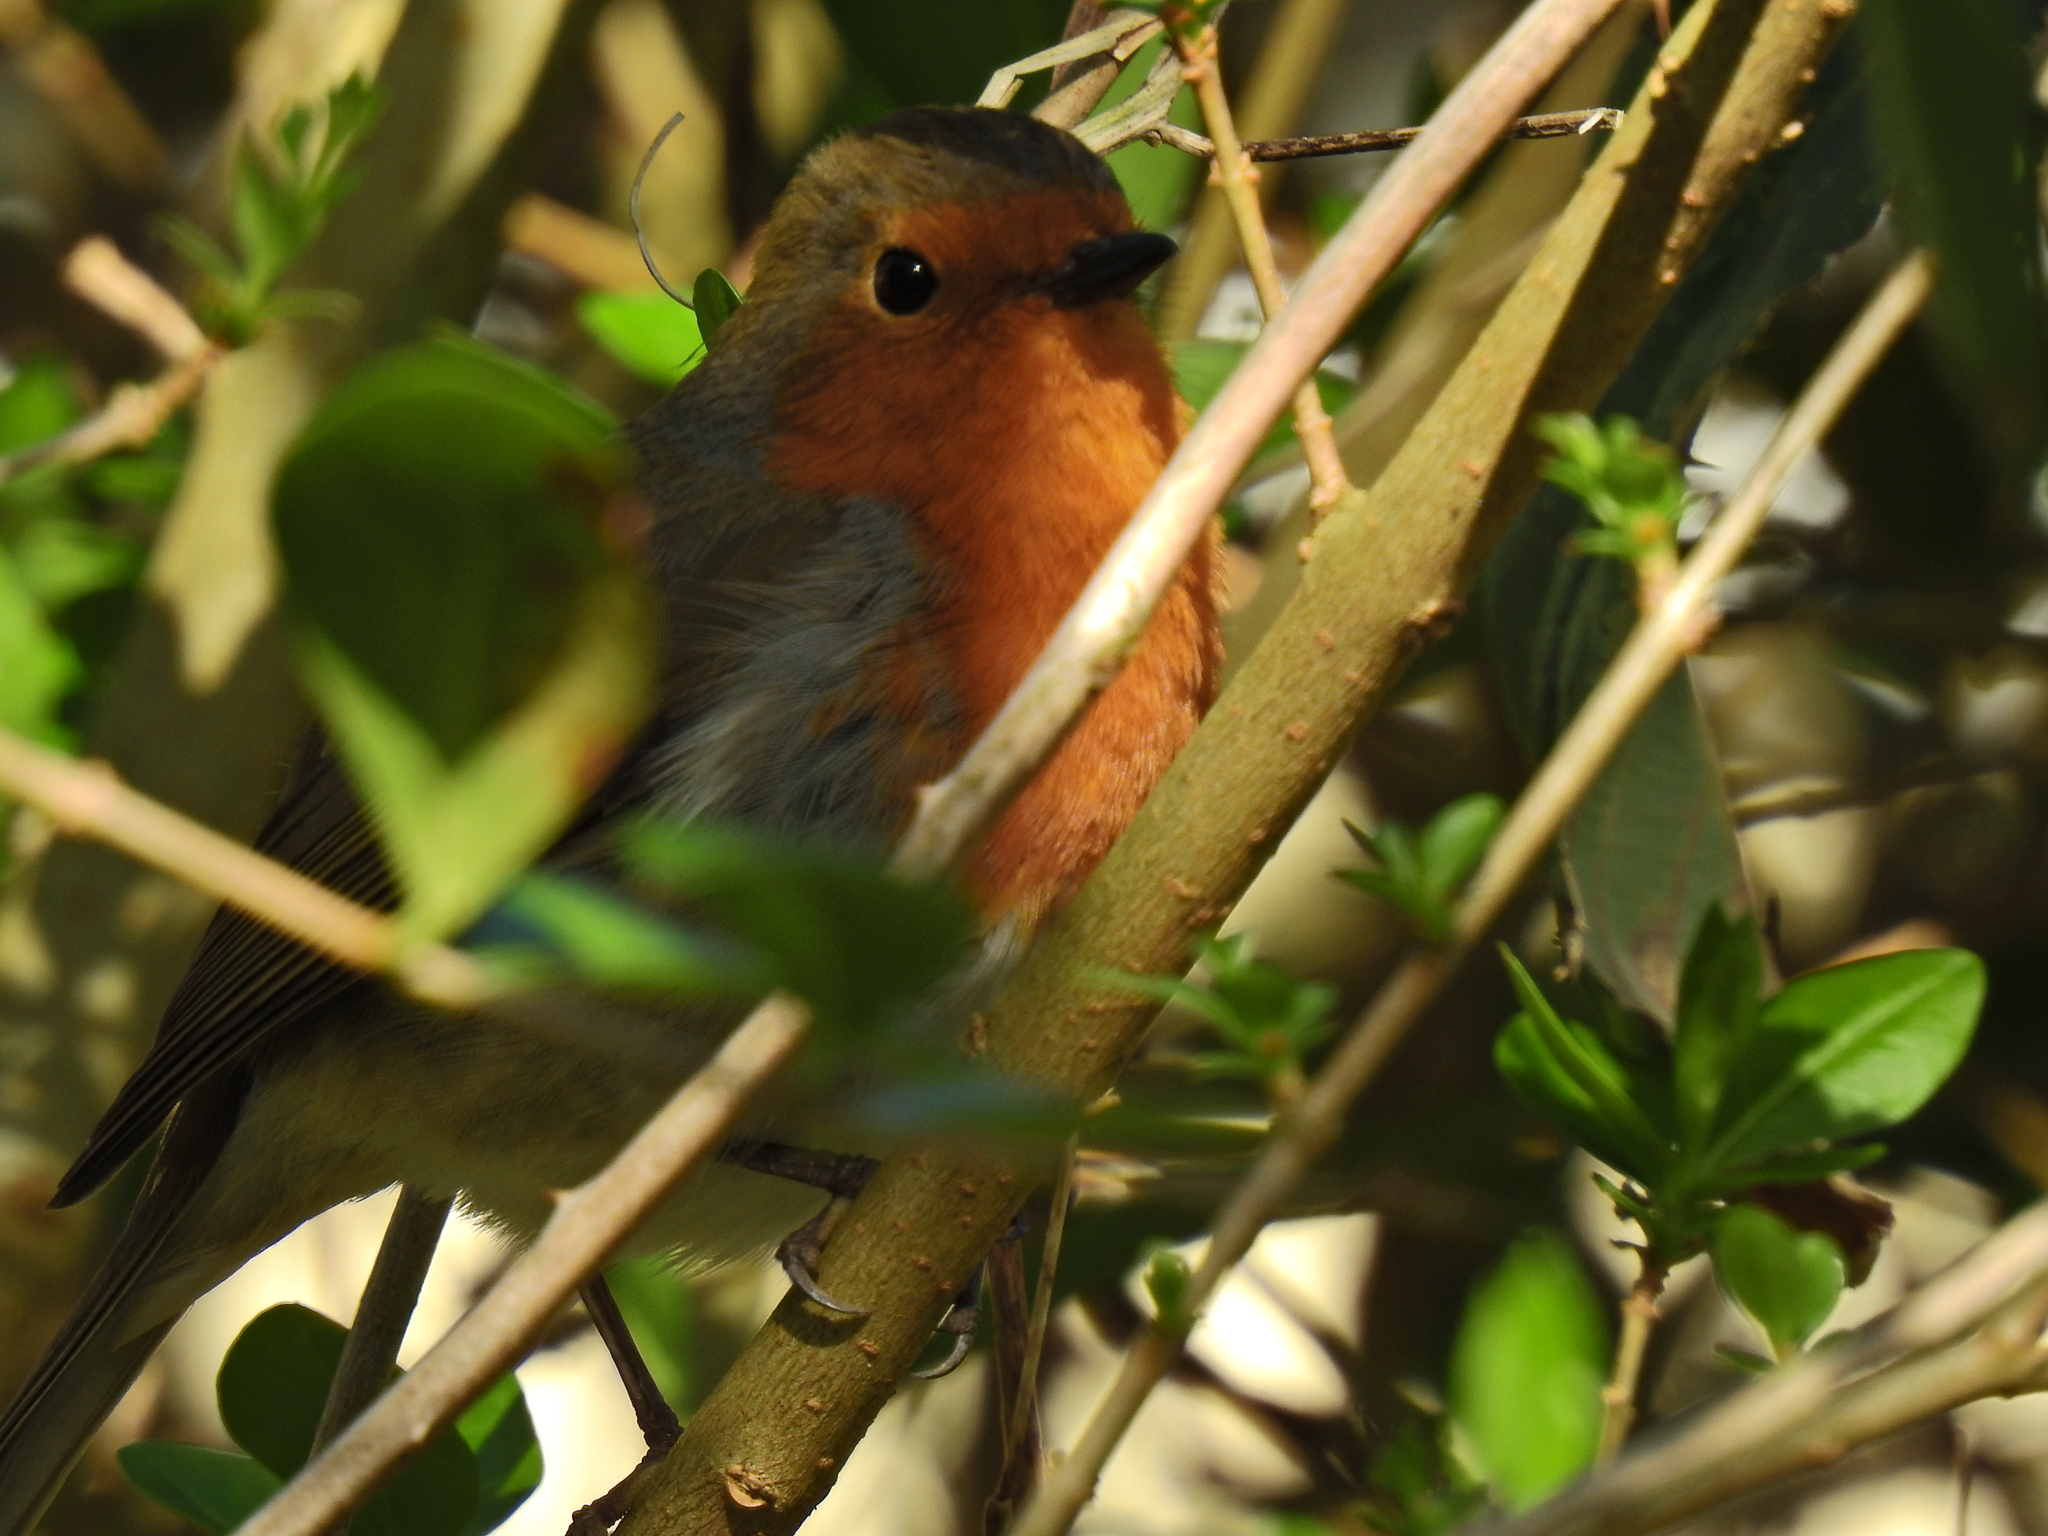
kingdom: Animalia
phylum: Chordata
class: Aves
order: Passeriformes
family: Muscicapidae
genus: Erithacus
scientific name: Erithacus rubecula
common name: European robin
